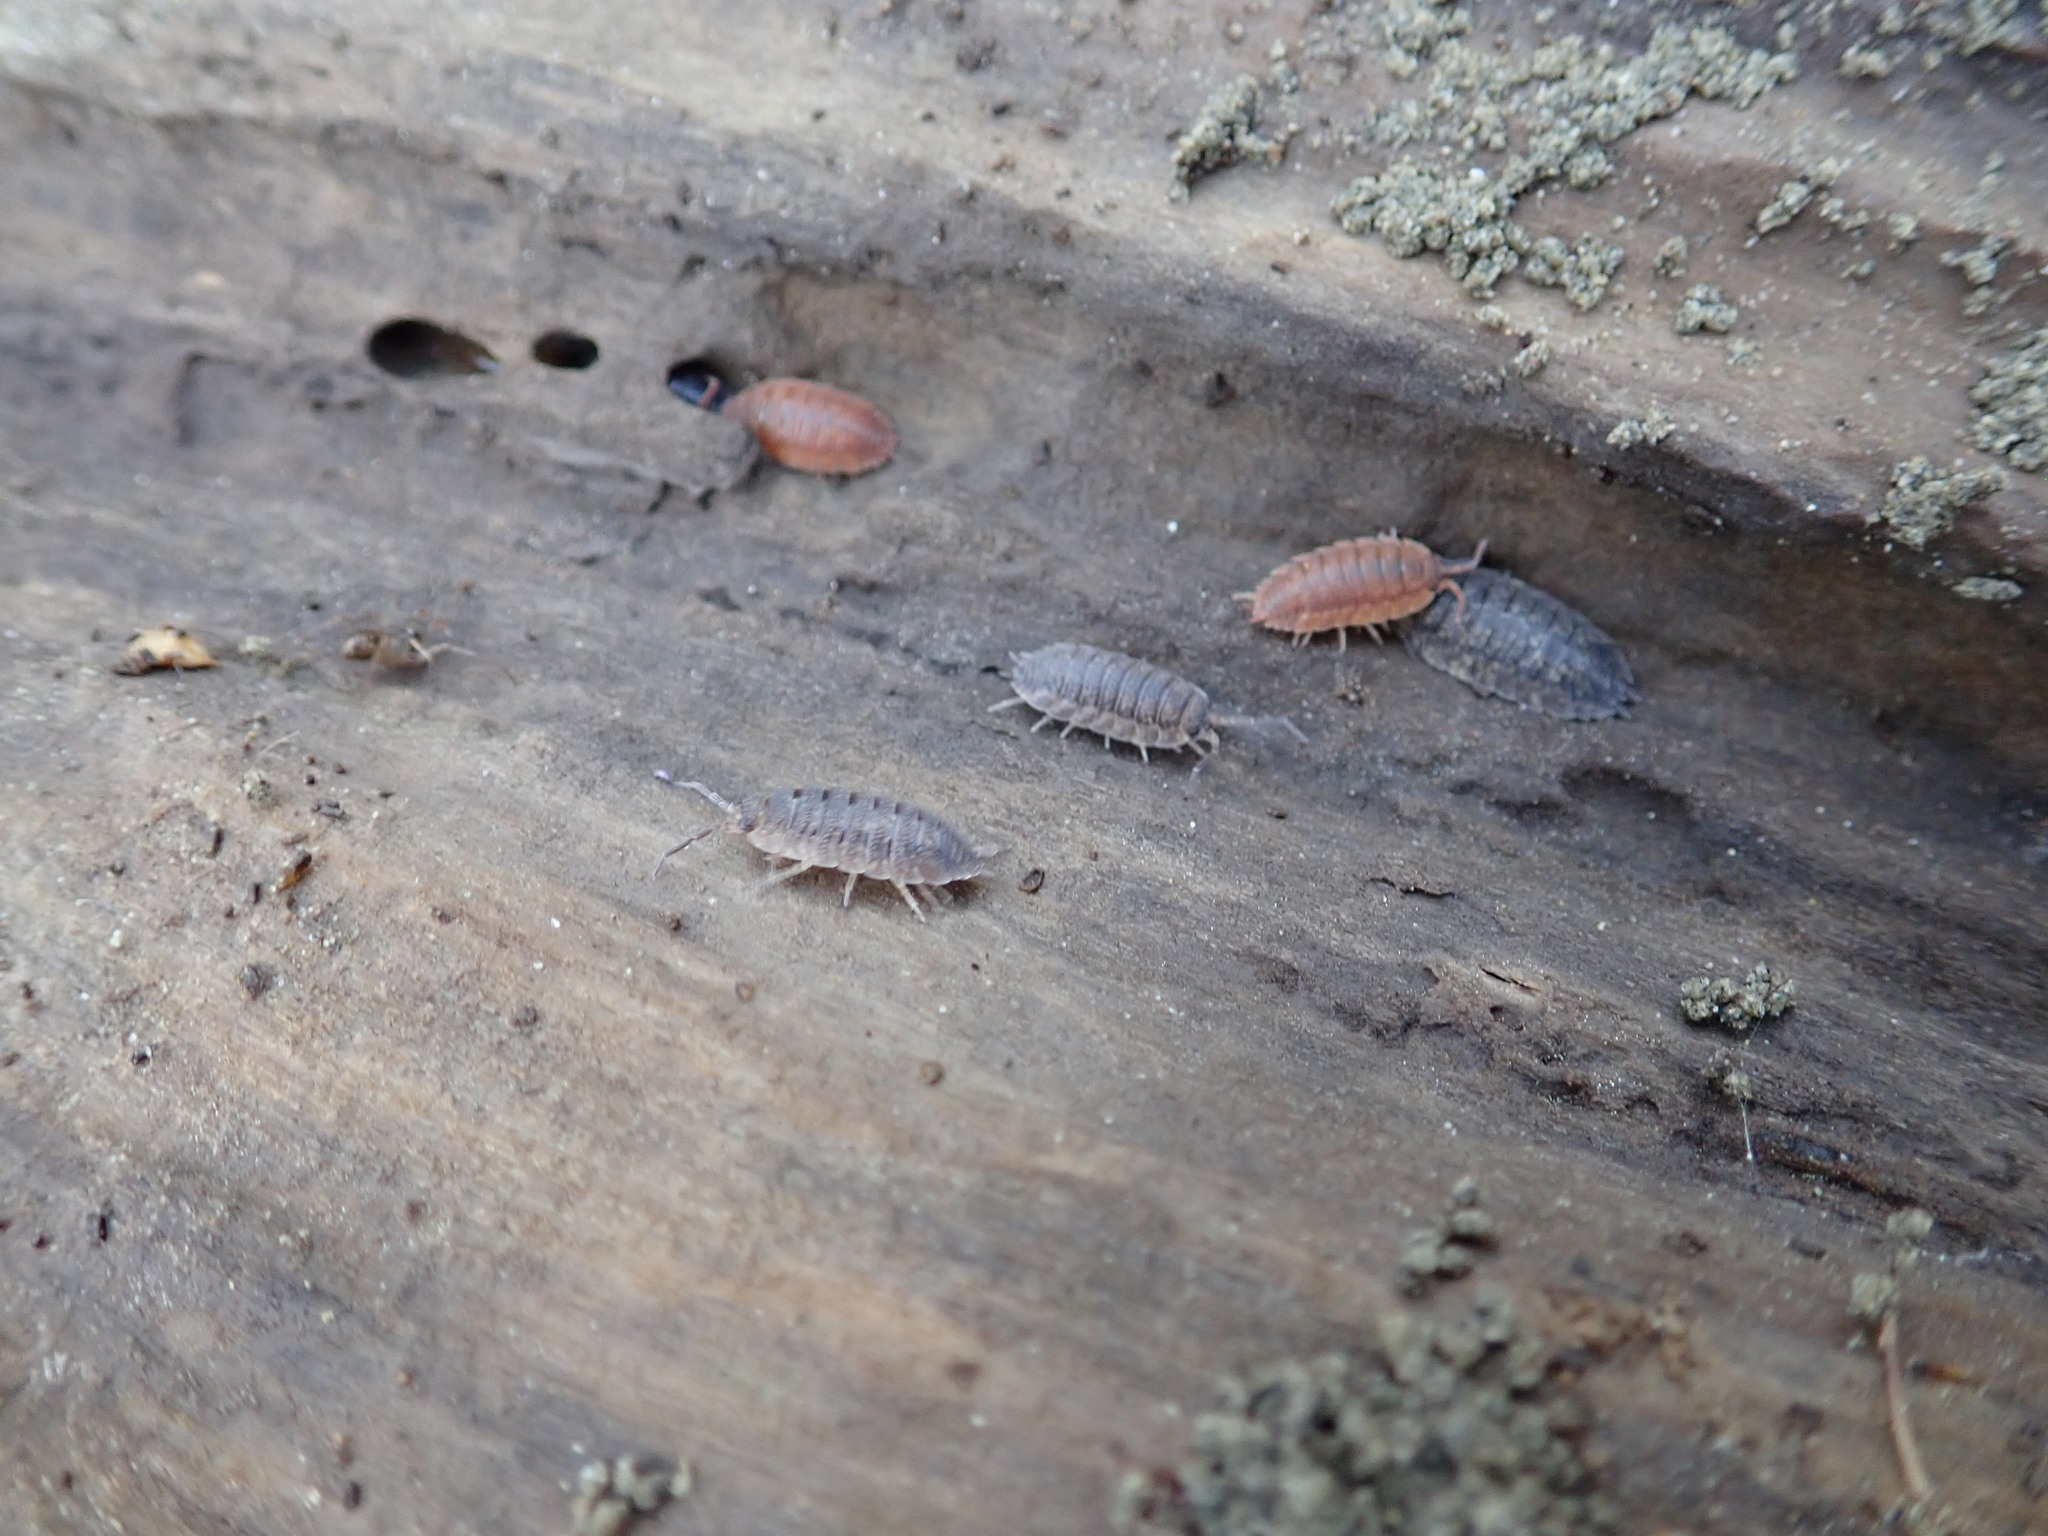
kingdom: Animalia
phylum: Arthropoda
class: Malacostraca
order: Isopoda
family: Porcellionidae
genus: Porcellio
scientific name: Porcellio scaber
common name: Common rough woodlouse
